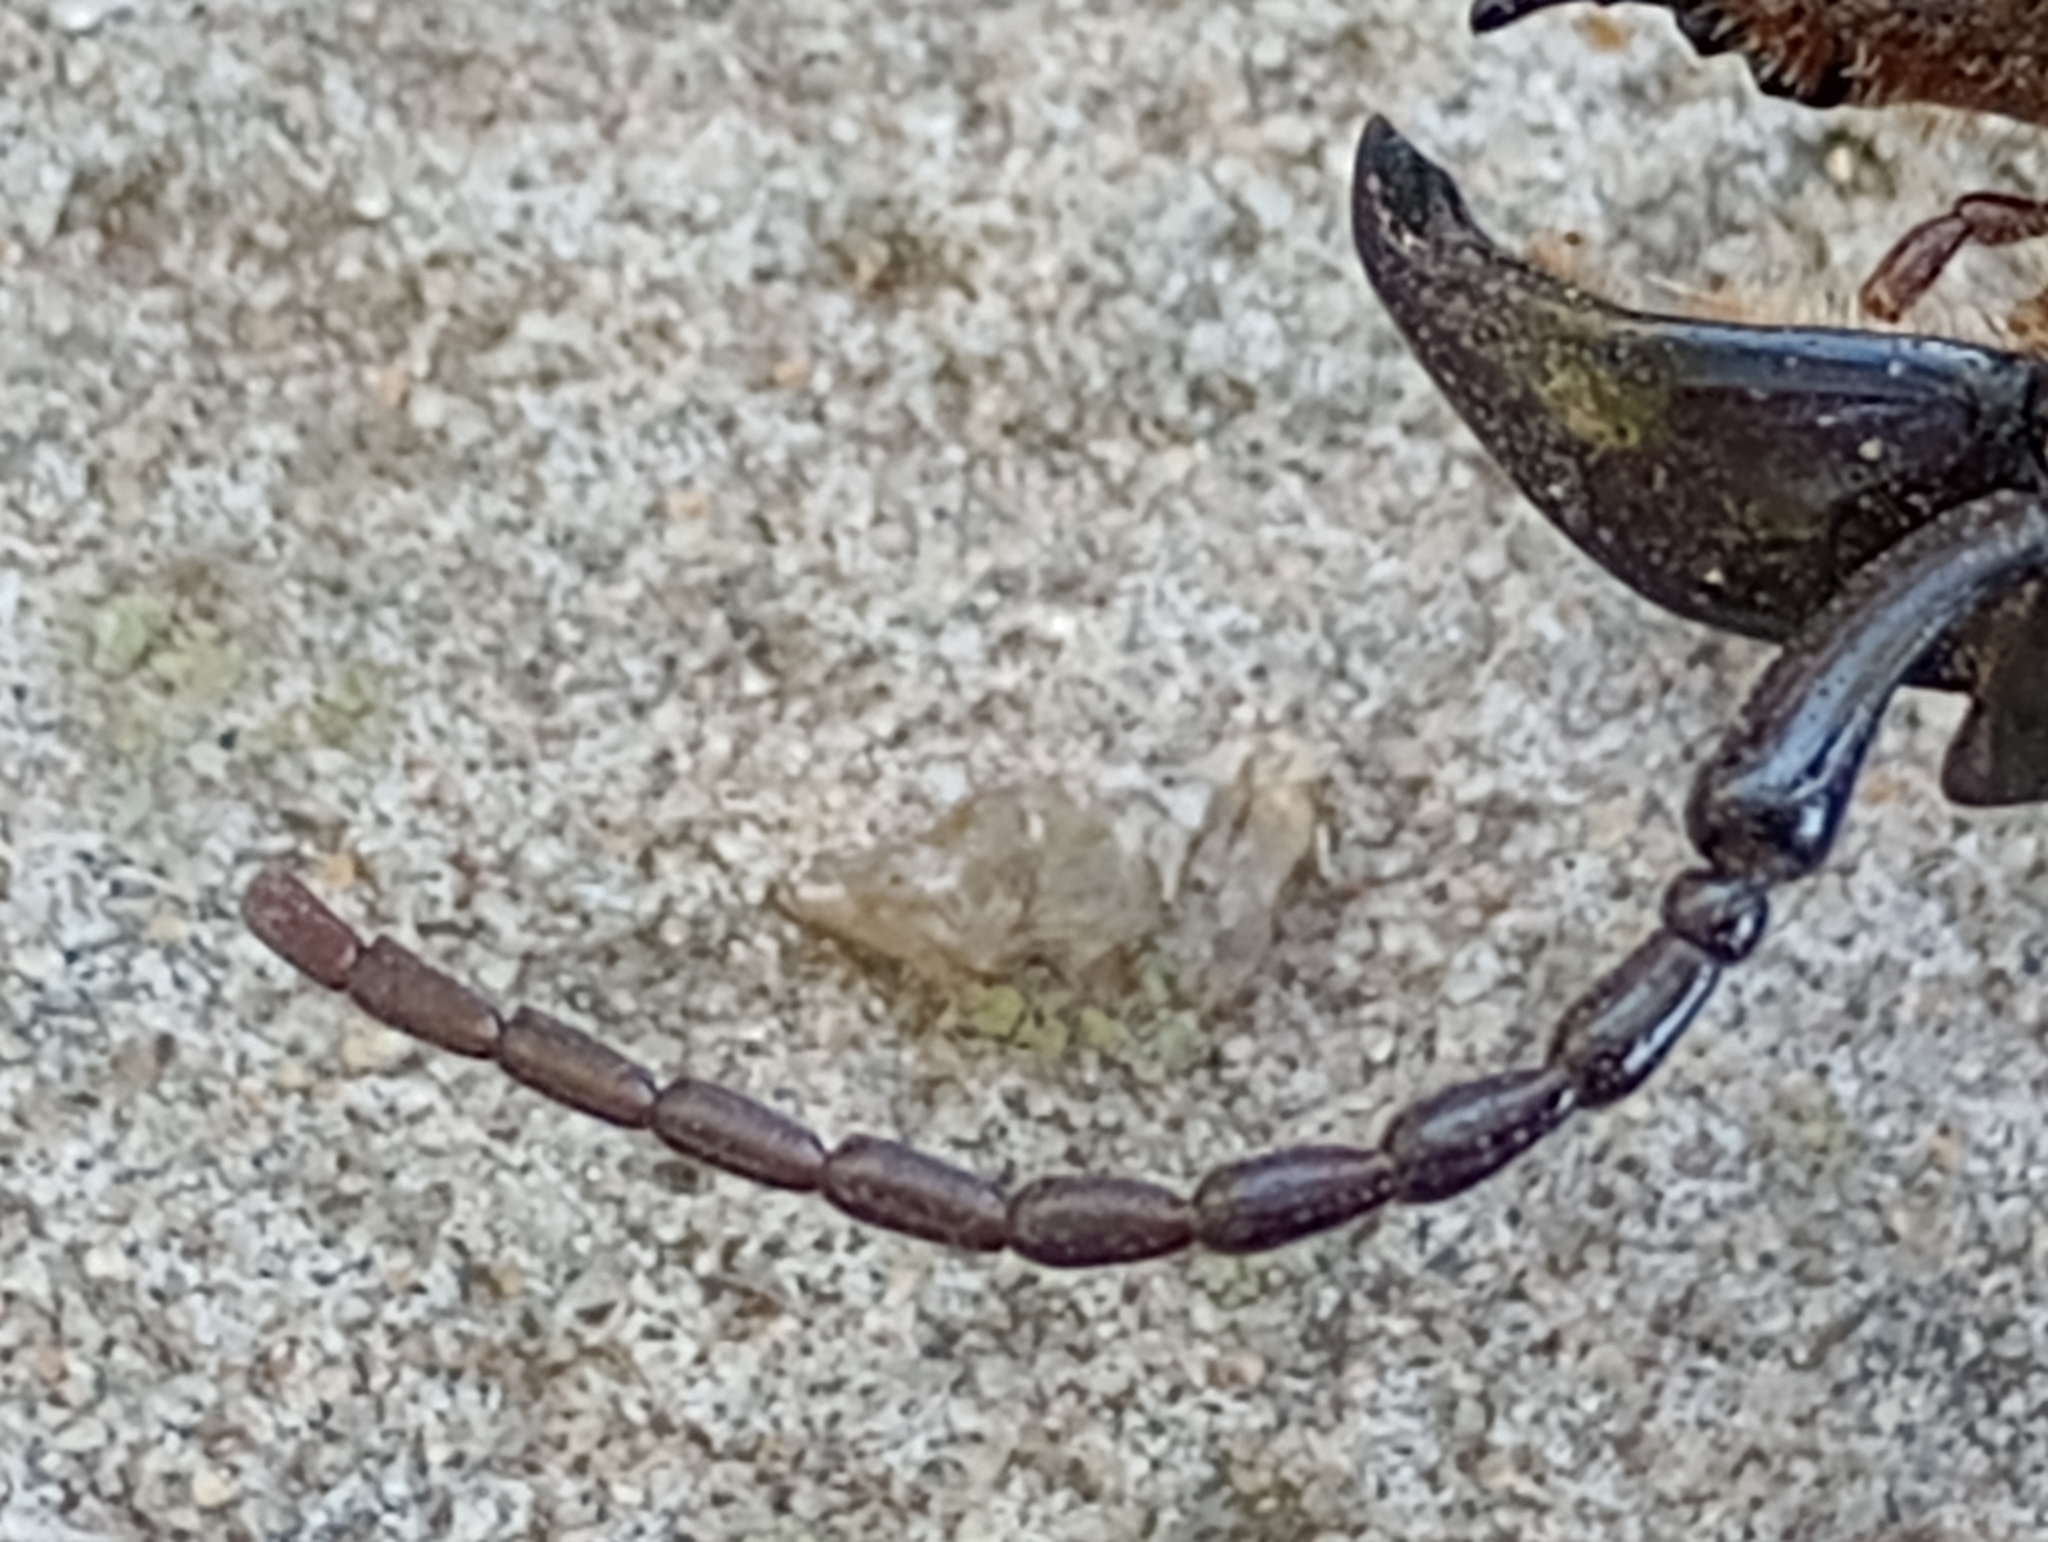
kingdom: Animalia
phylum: Arthropoda
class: Insecta
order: Coleoptera
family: Cerambycidae
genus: Mallodon
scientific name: Mallodon dasystomum
